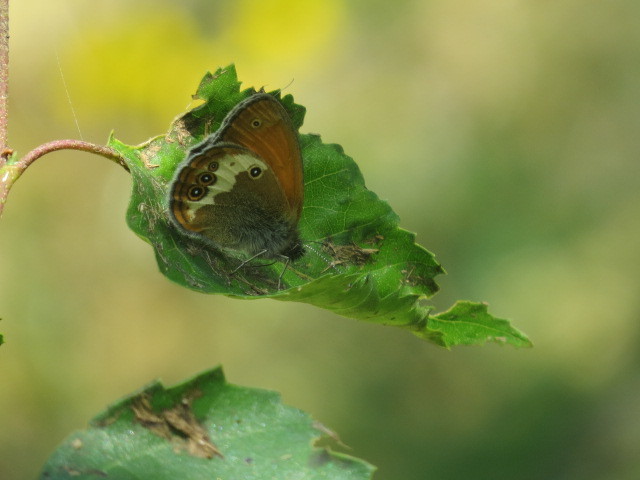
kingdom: Animalia
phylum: Arthropoda
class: Insecta
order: Lepidoptera
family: Nymphalidae
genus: Coenonympha
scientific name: Coenonympha arcania
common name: Pearly heath
